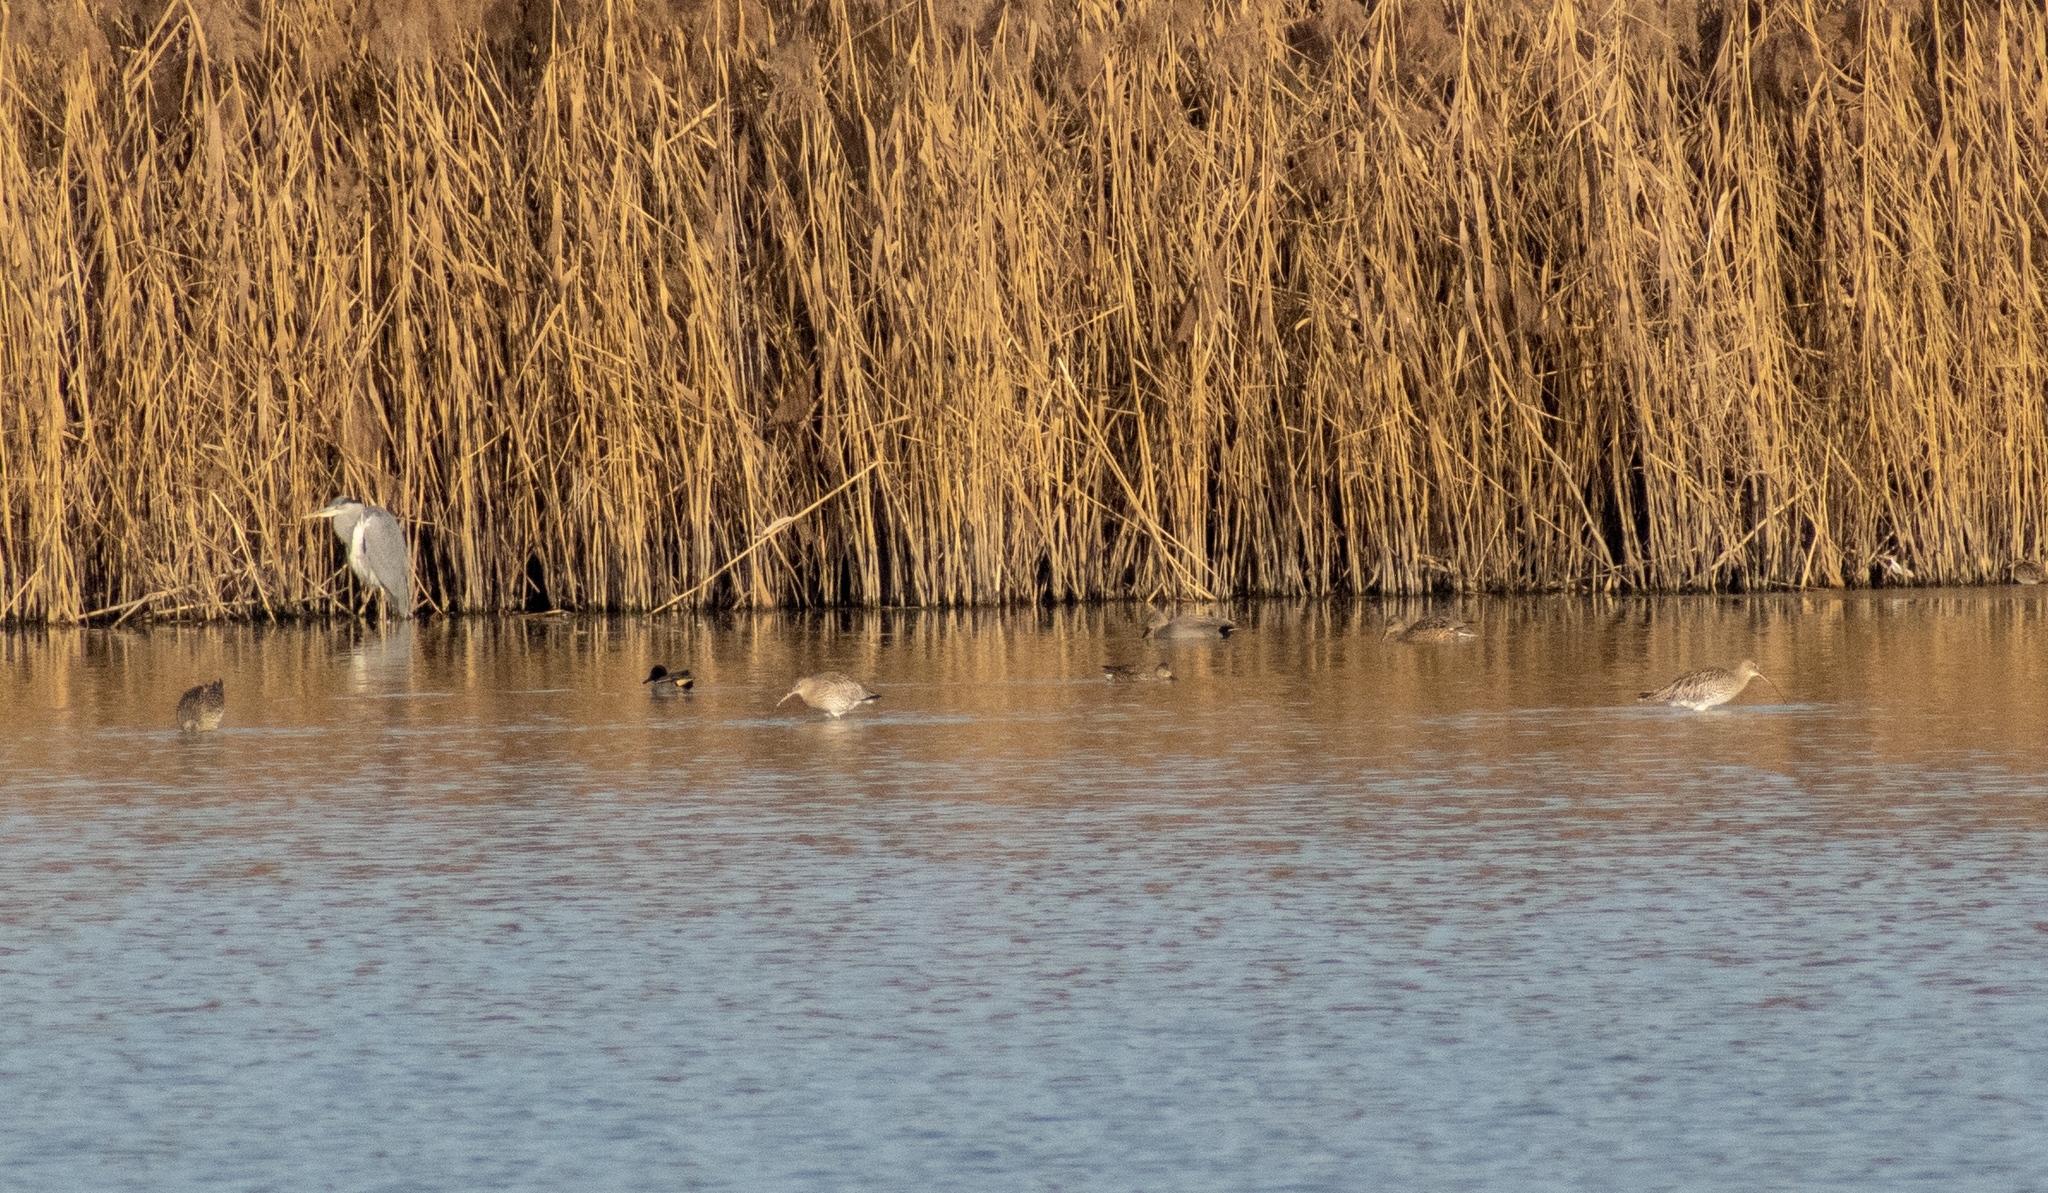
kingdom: Animalia
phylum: Chordata
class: Aves
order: Charadriiformes
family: Scolopacidae
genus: Numenius
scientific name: Numenius arquata
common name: Eurasian curlew
